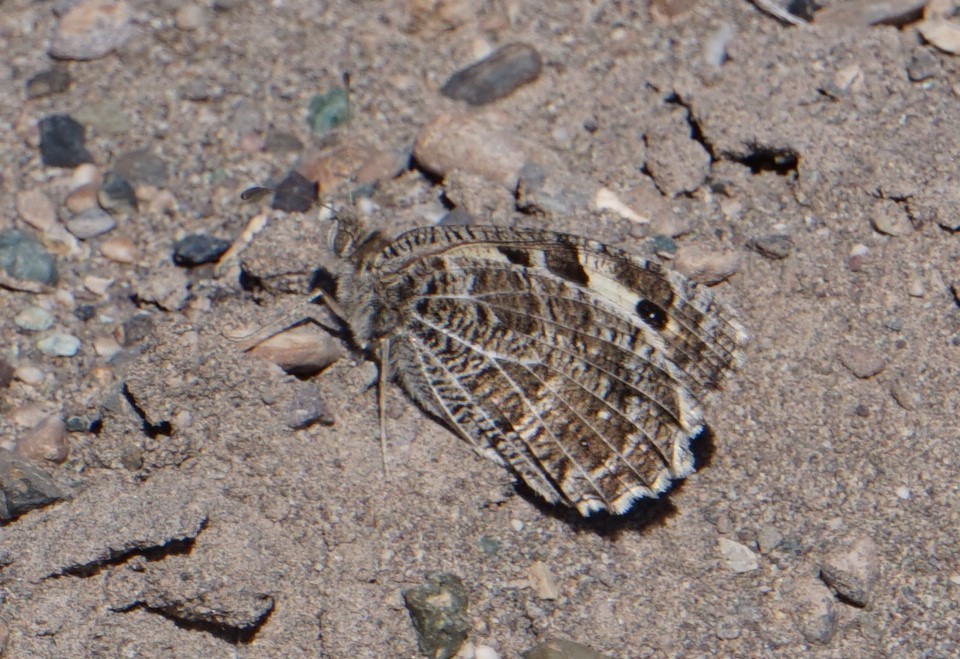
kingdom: Animalia
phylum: Arthropoda
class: Insecta
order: Lepidoptera
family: Nymphalidae
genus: Satyrus
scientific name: Satyrus Chazara heydenreichi
